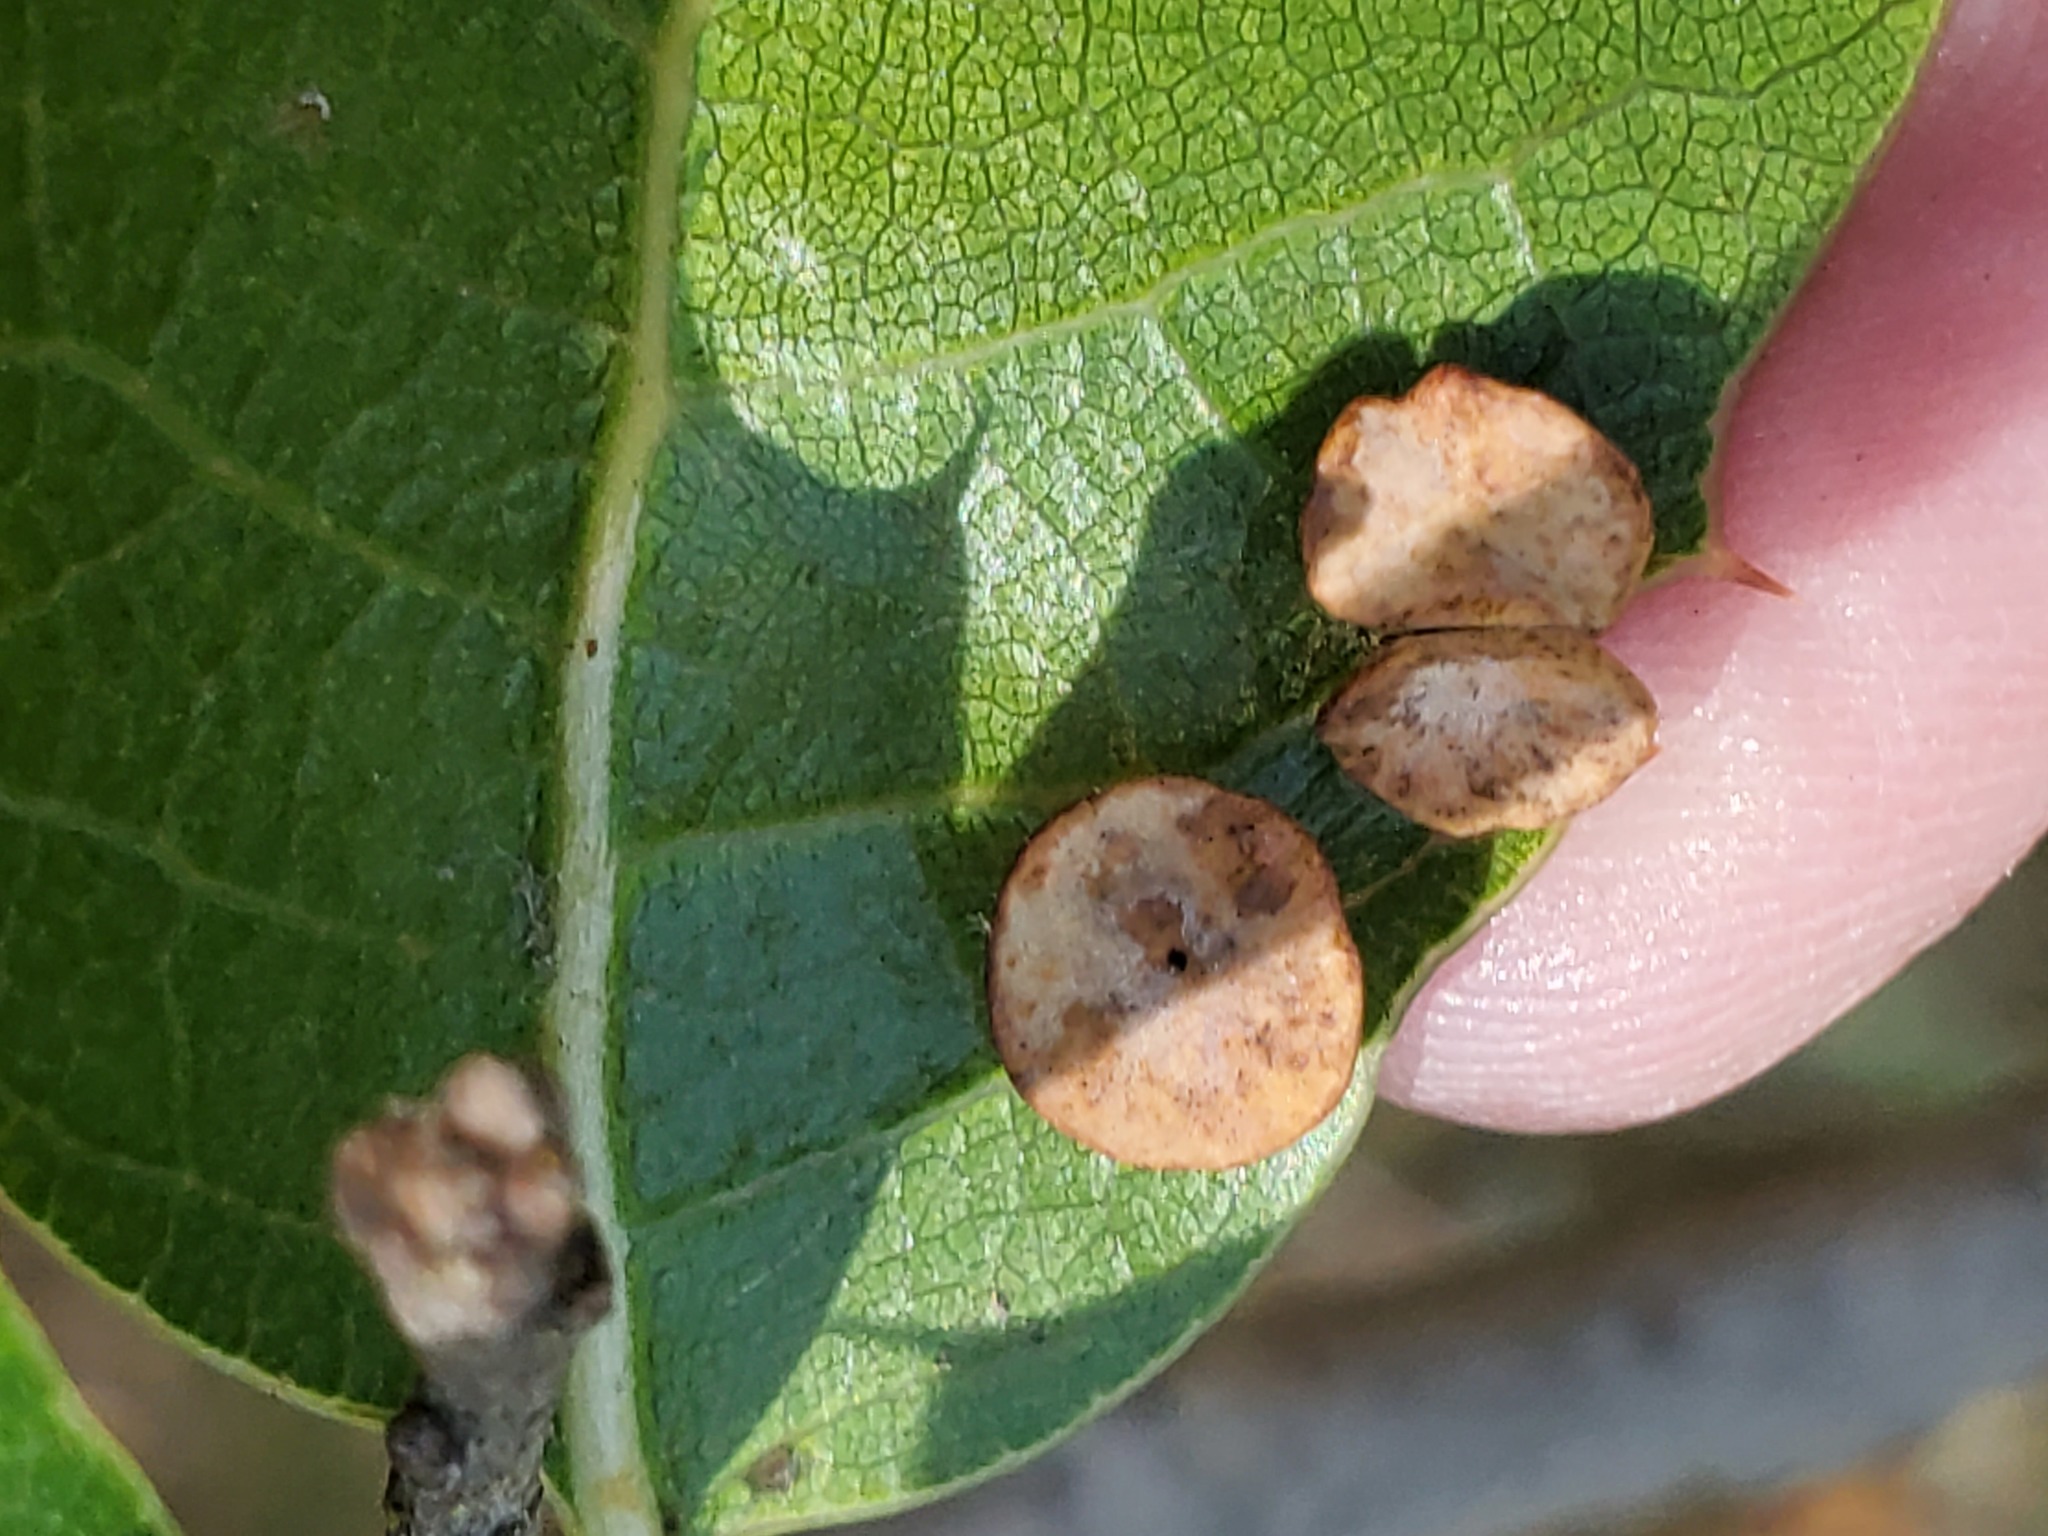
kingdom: Animalia
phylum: Arthropoda
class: Insecta
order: Hymenoptera
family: Cynipidae
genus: Amphibolips
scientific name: Amphibolips quercuspomiformis
